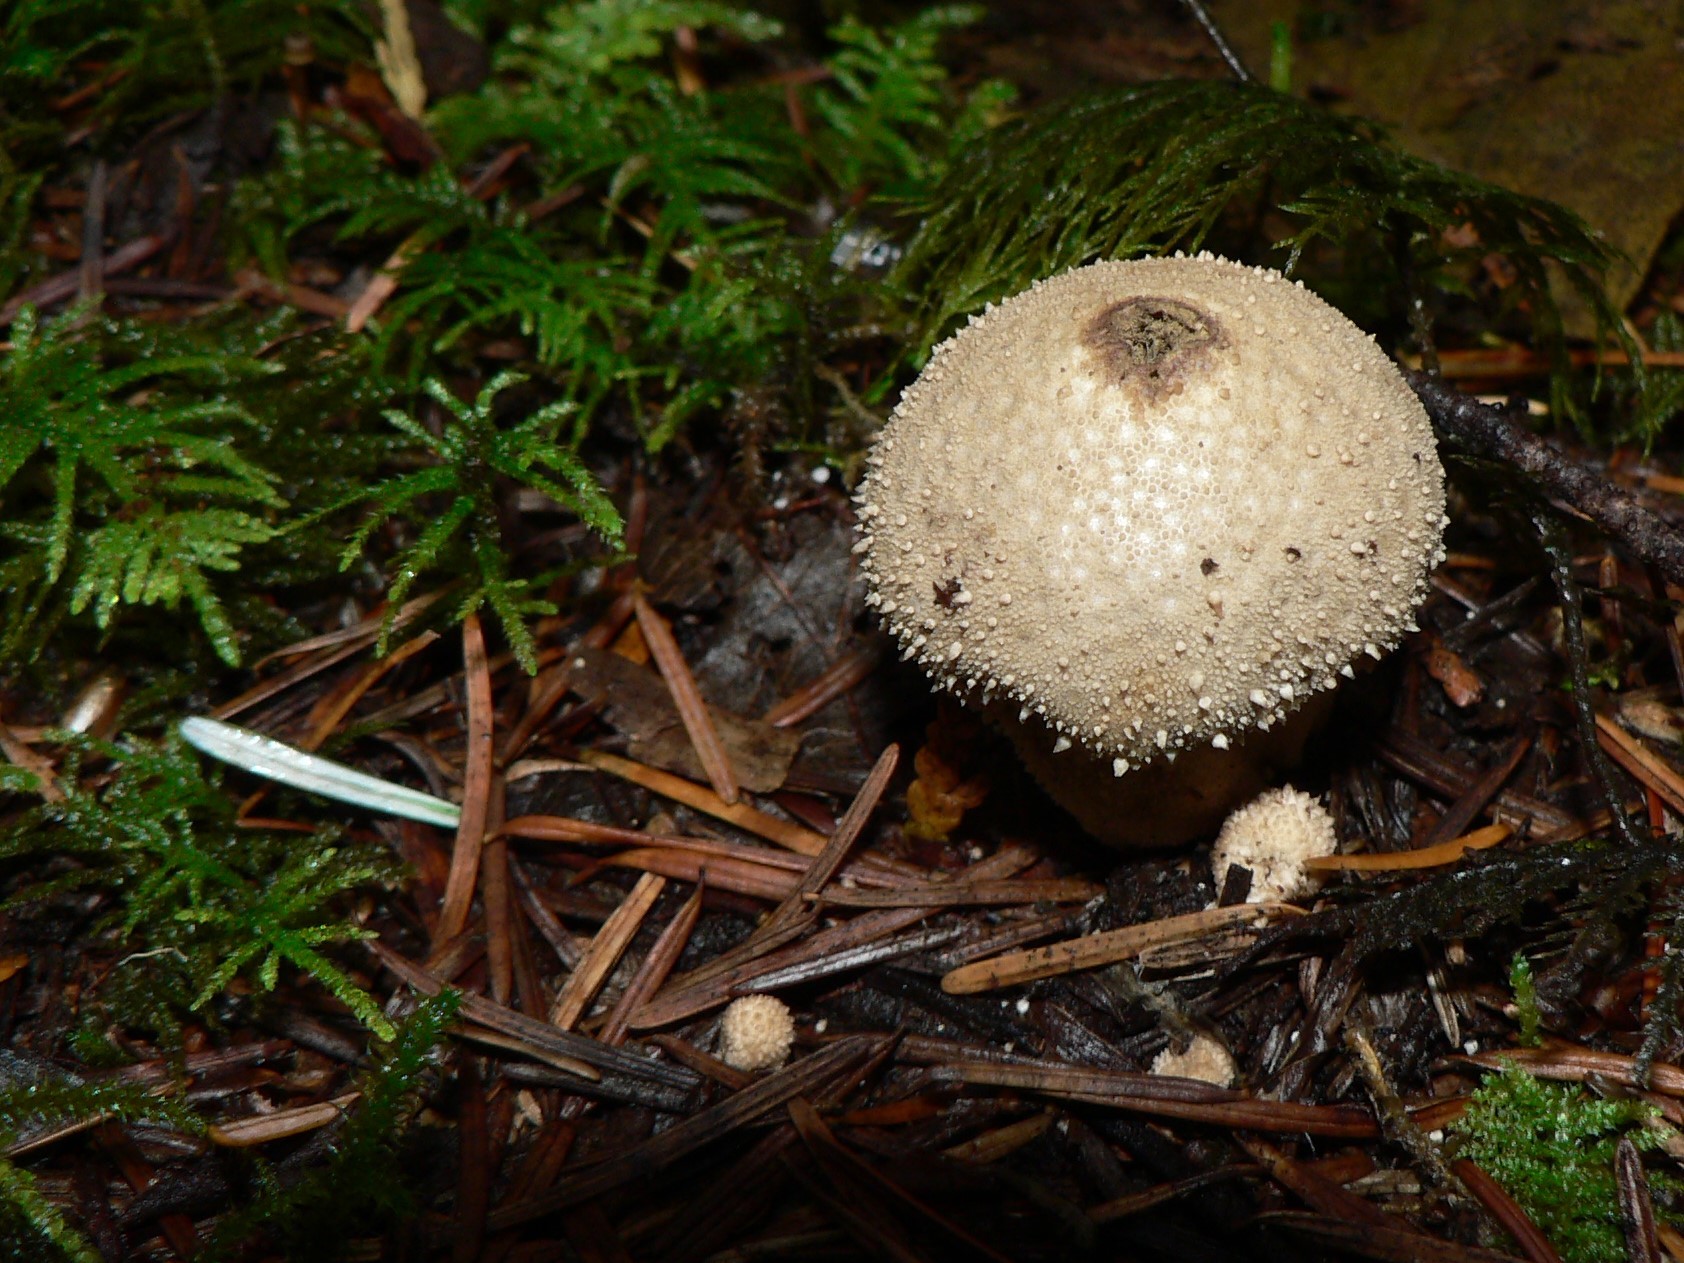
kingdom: Fungi
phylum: Basidiomycota
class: Agaricomycetes
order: Agaricales
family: Lycoperdaceae
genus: Lycoperdon
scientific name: Lycoperdon perlatum
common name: Common puffball
